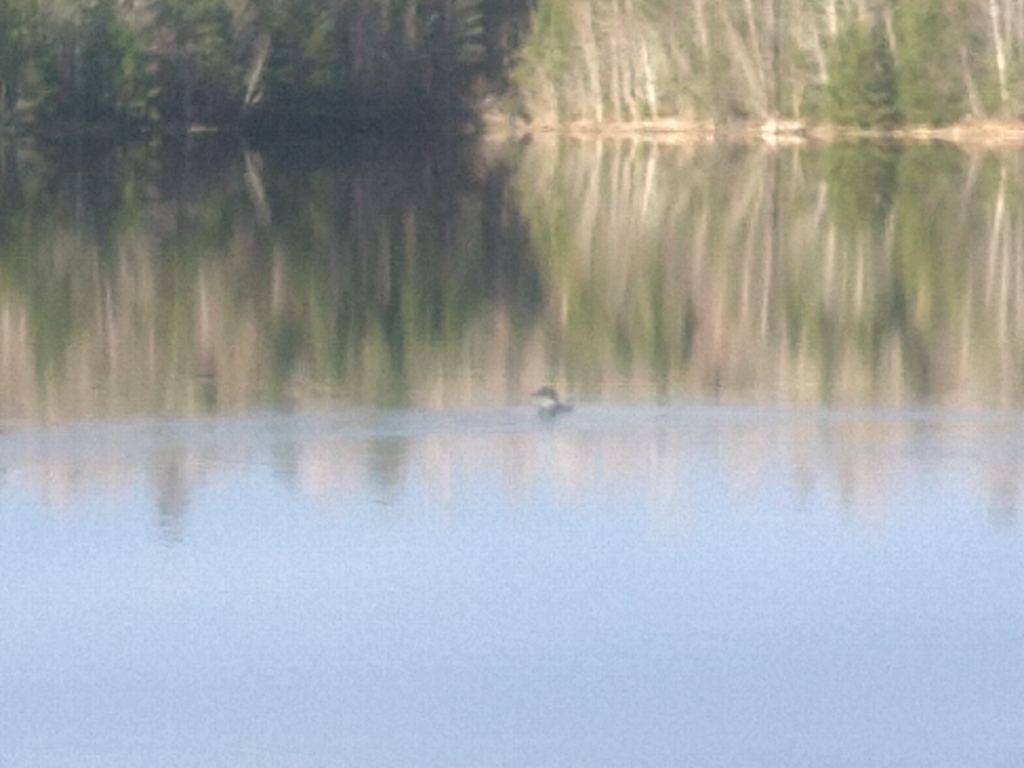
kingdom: Animalia
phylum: Chordata
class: Aves
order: Gaviiformes
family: Gaviidae
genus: Gavia
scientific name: Gavia immer
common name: Common loon
